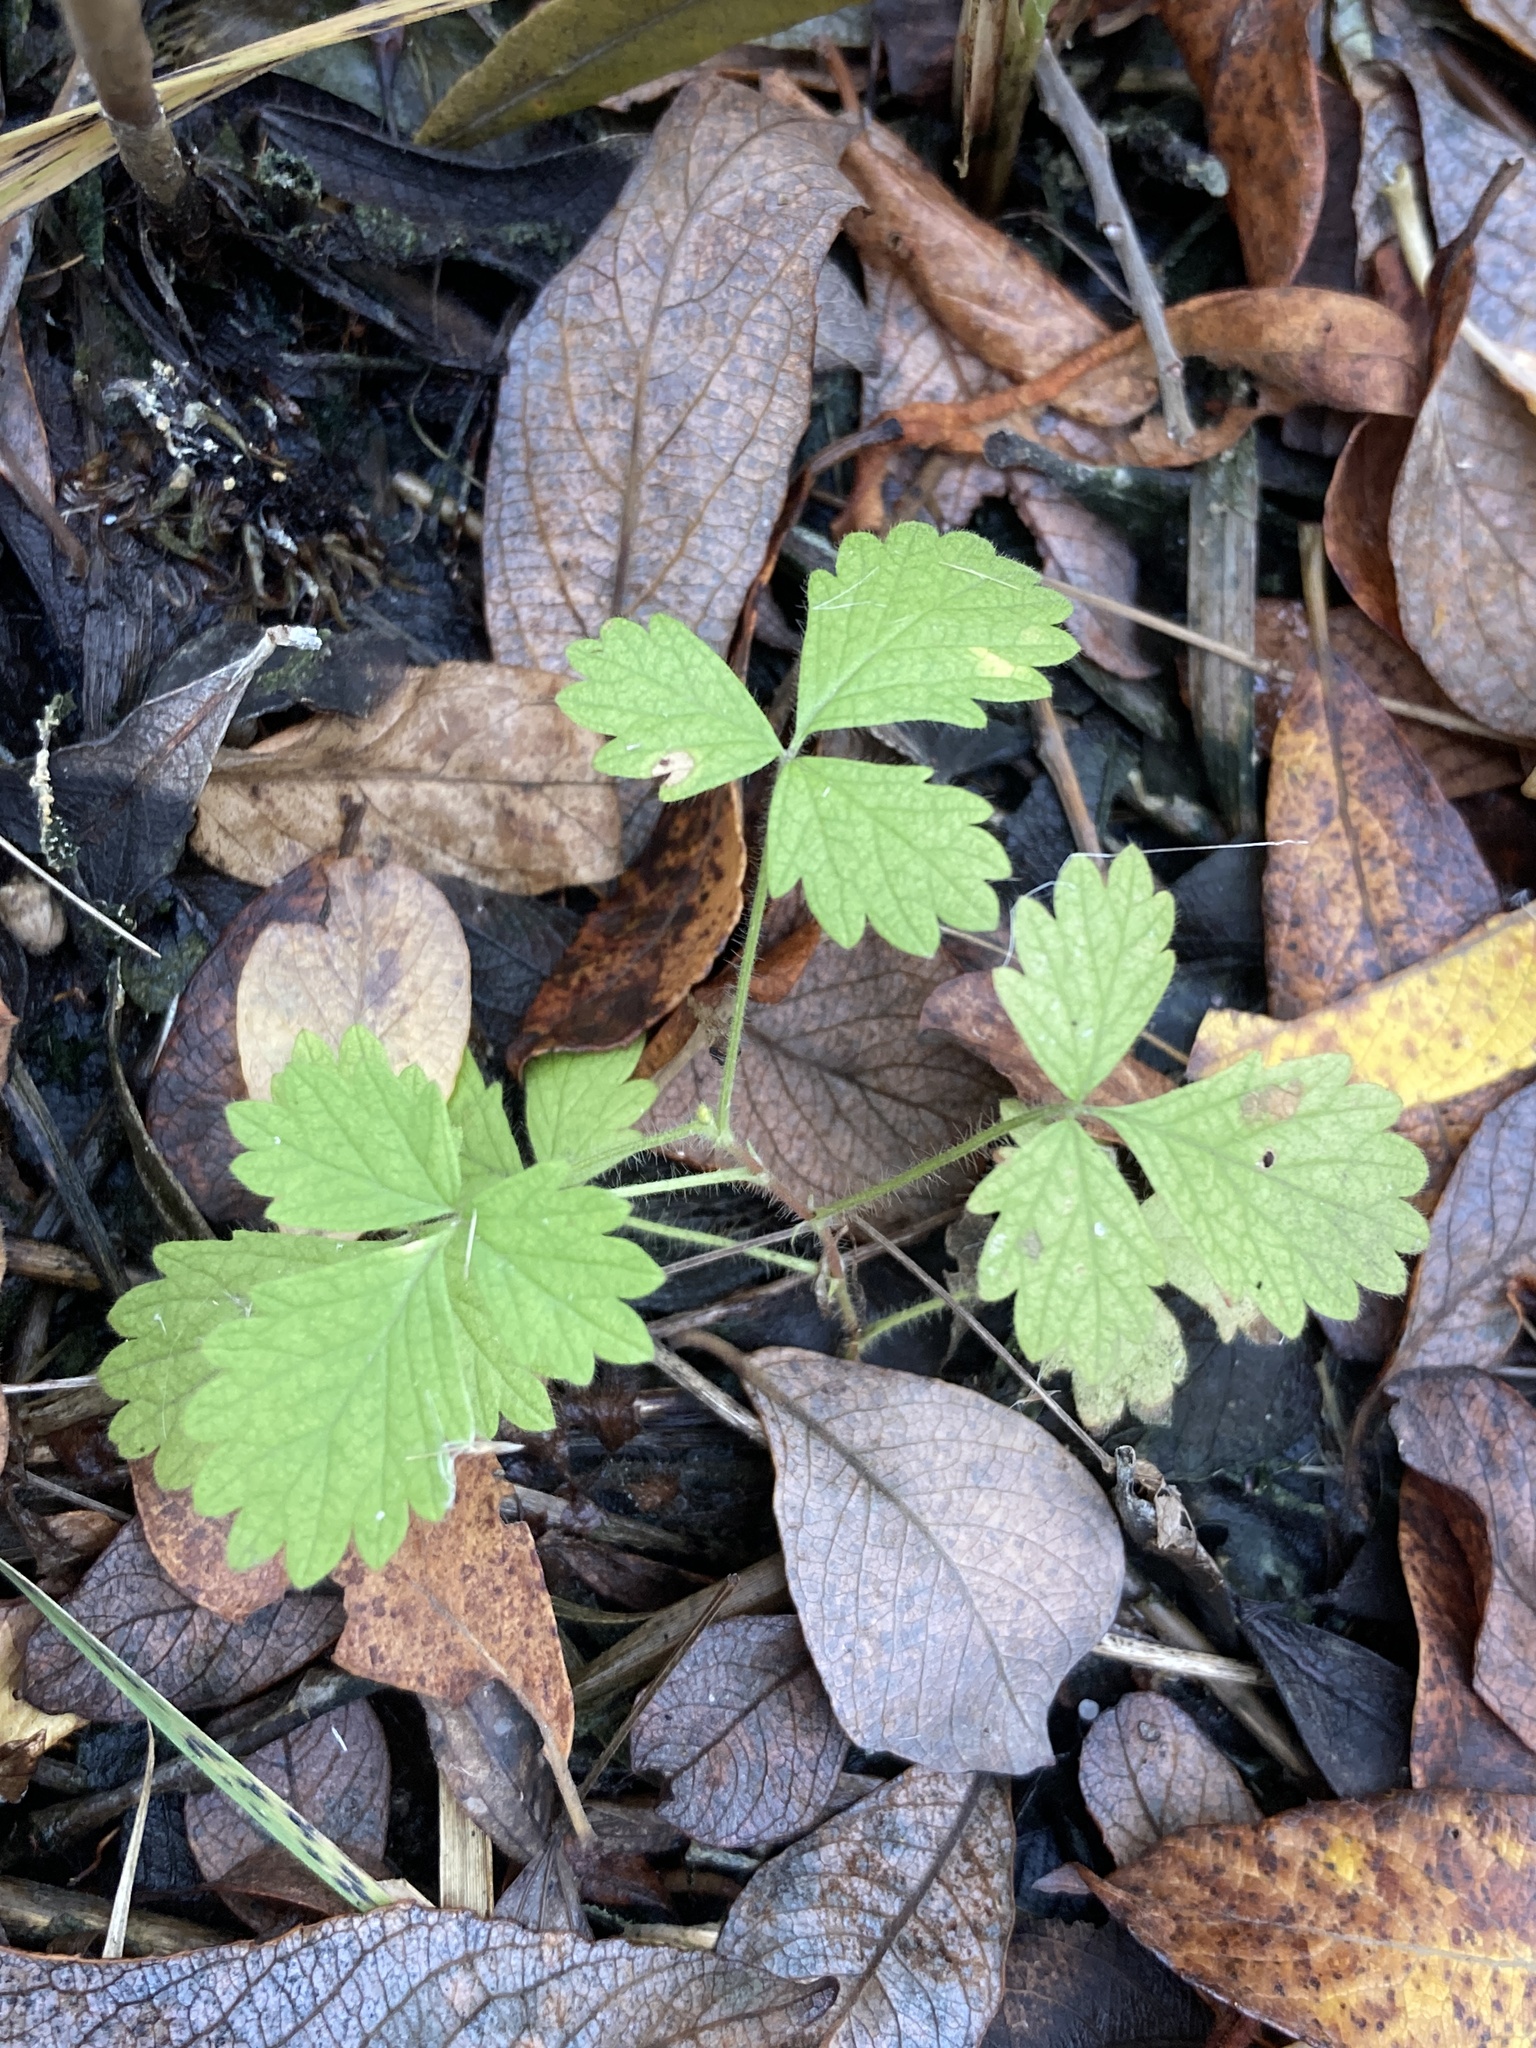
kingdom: Plantae
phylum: Tracheophyta
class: Magnoliopsida
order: Rosales
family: Rosaceae
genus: Potentilla
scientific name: Potentilla norvegica
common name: Ternate-leaved cinquefoil
